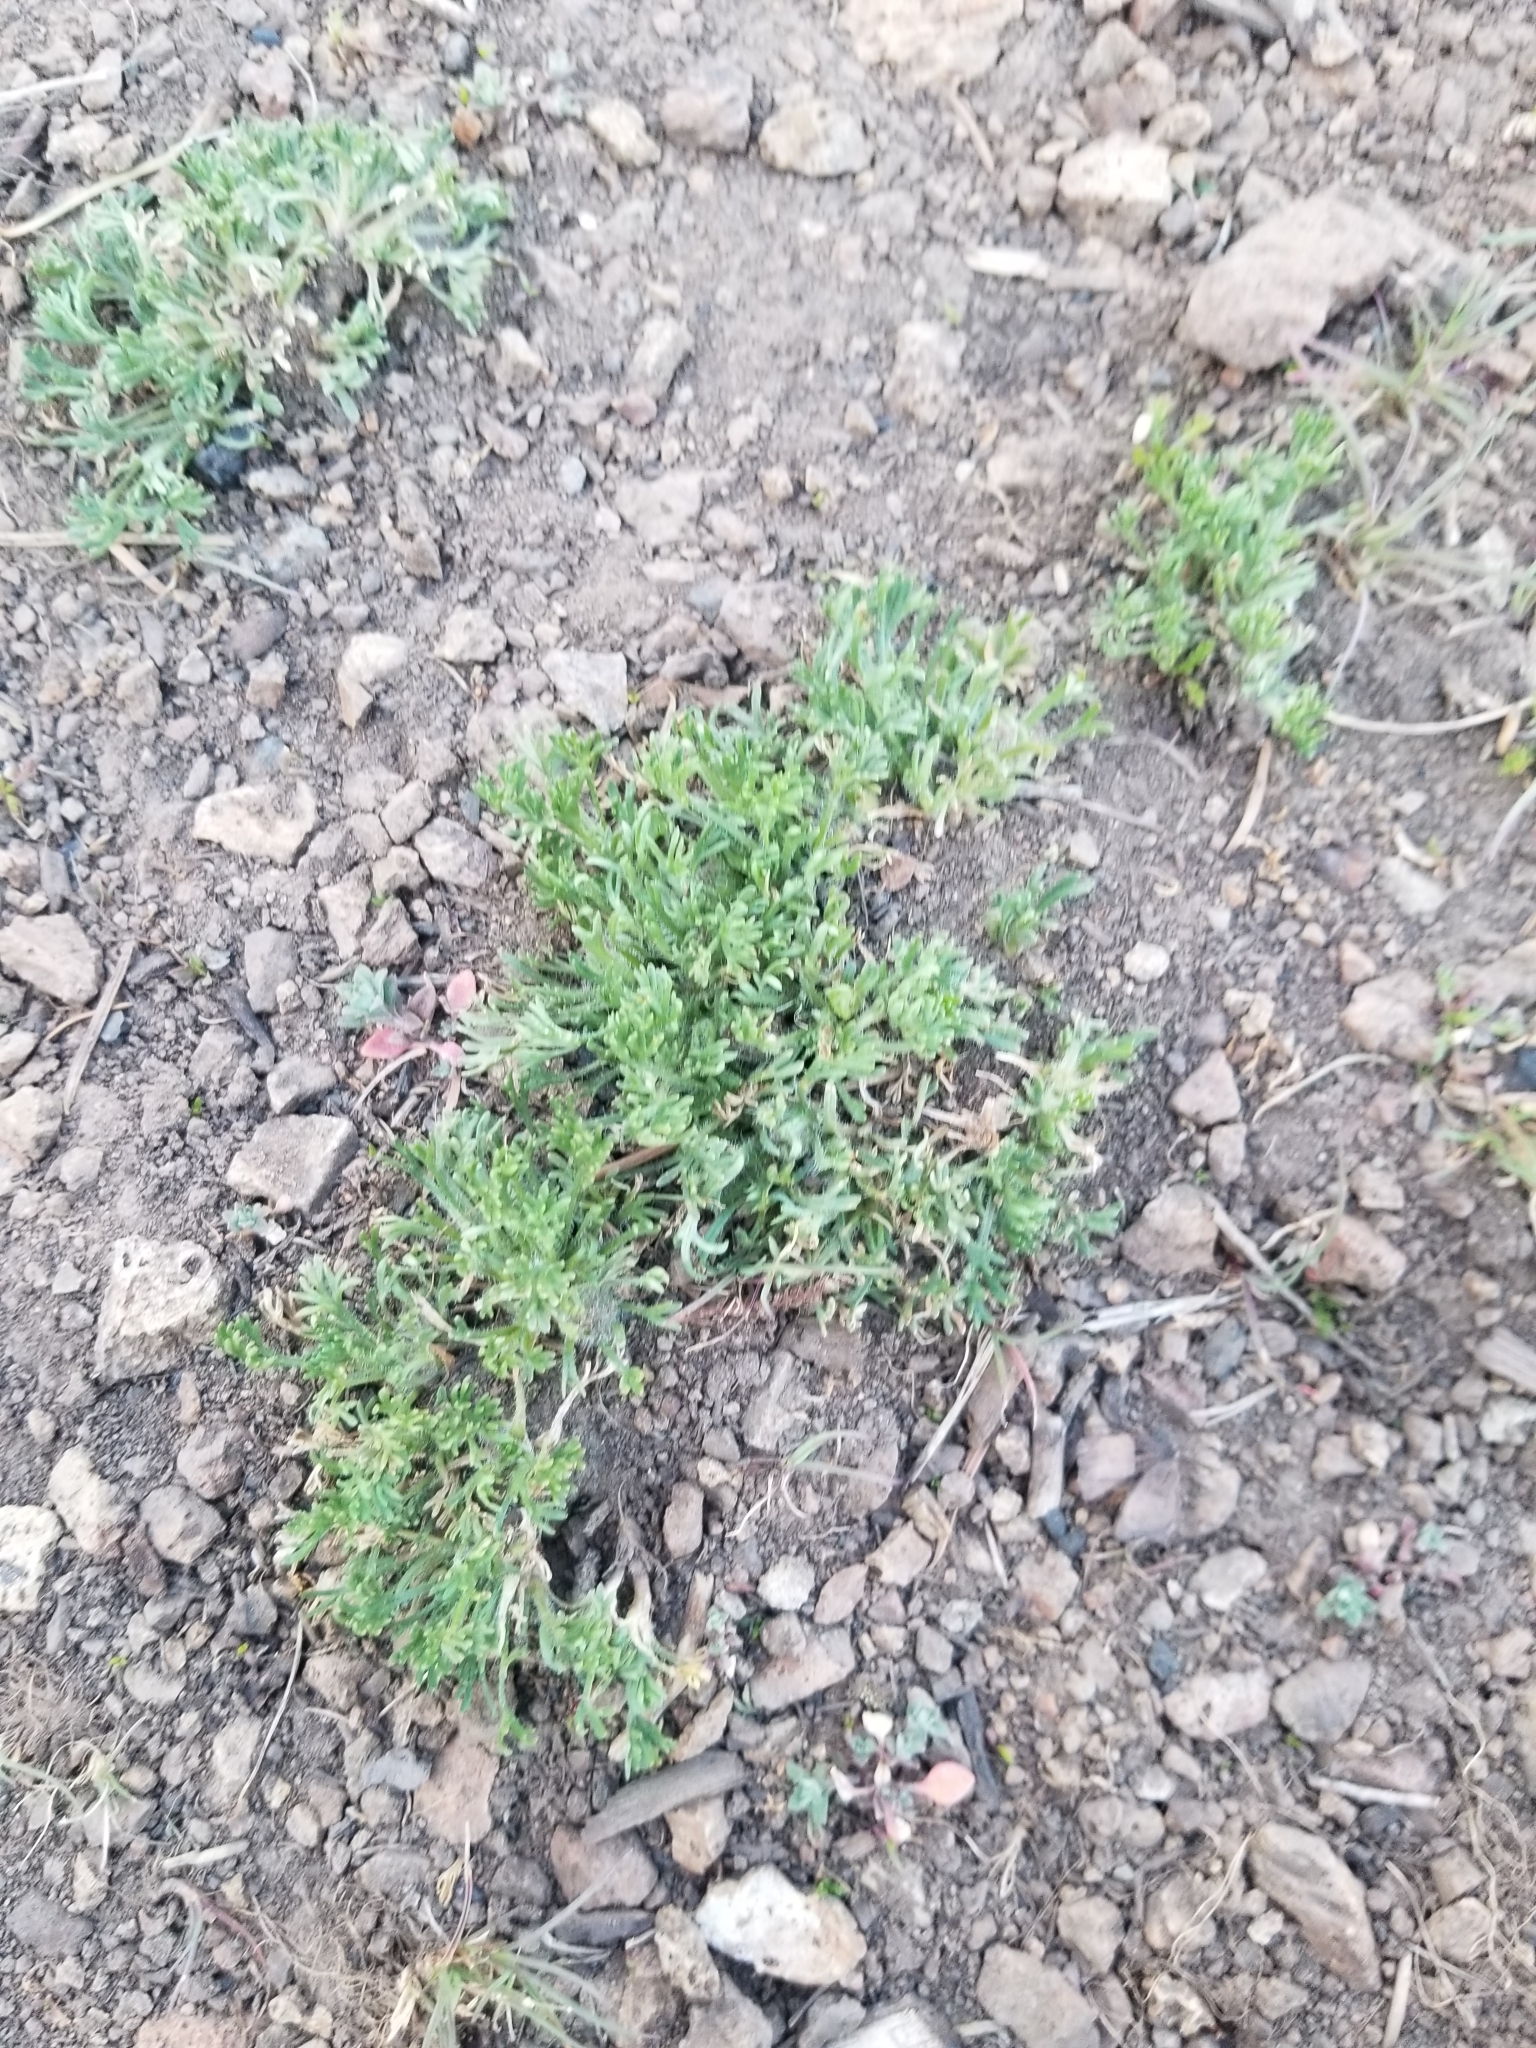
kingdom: Plantae
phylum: Tracheophyta
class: Magnoliopsida
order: Asterales
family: Asteraceae
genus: Erigeron
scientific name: Erigeron compositus
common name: Dwarf mountain fleabane
